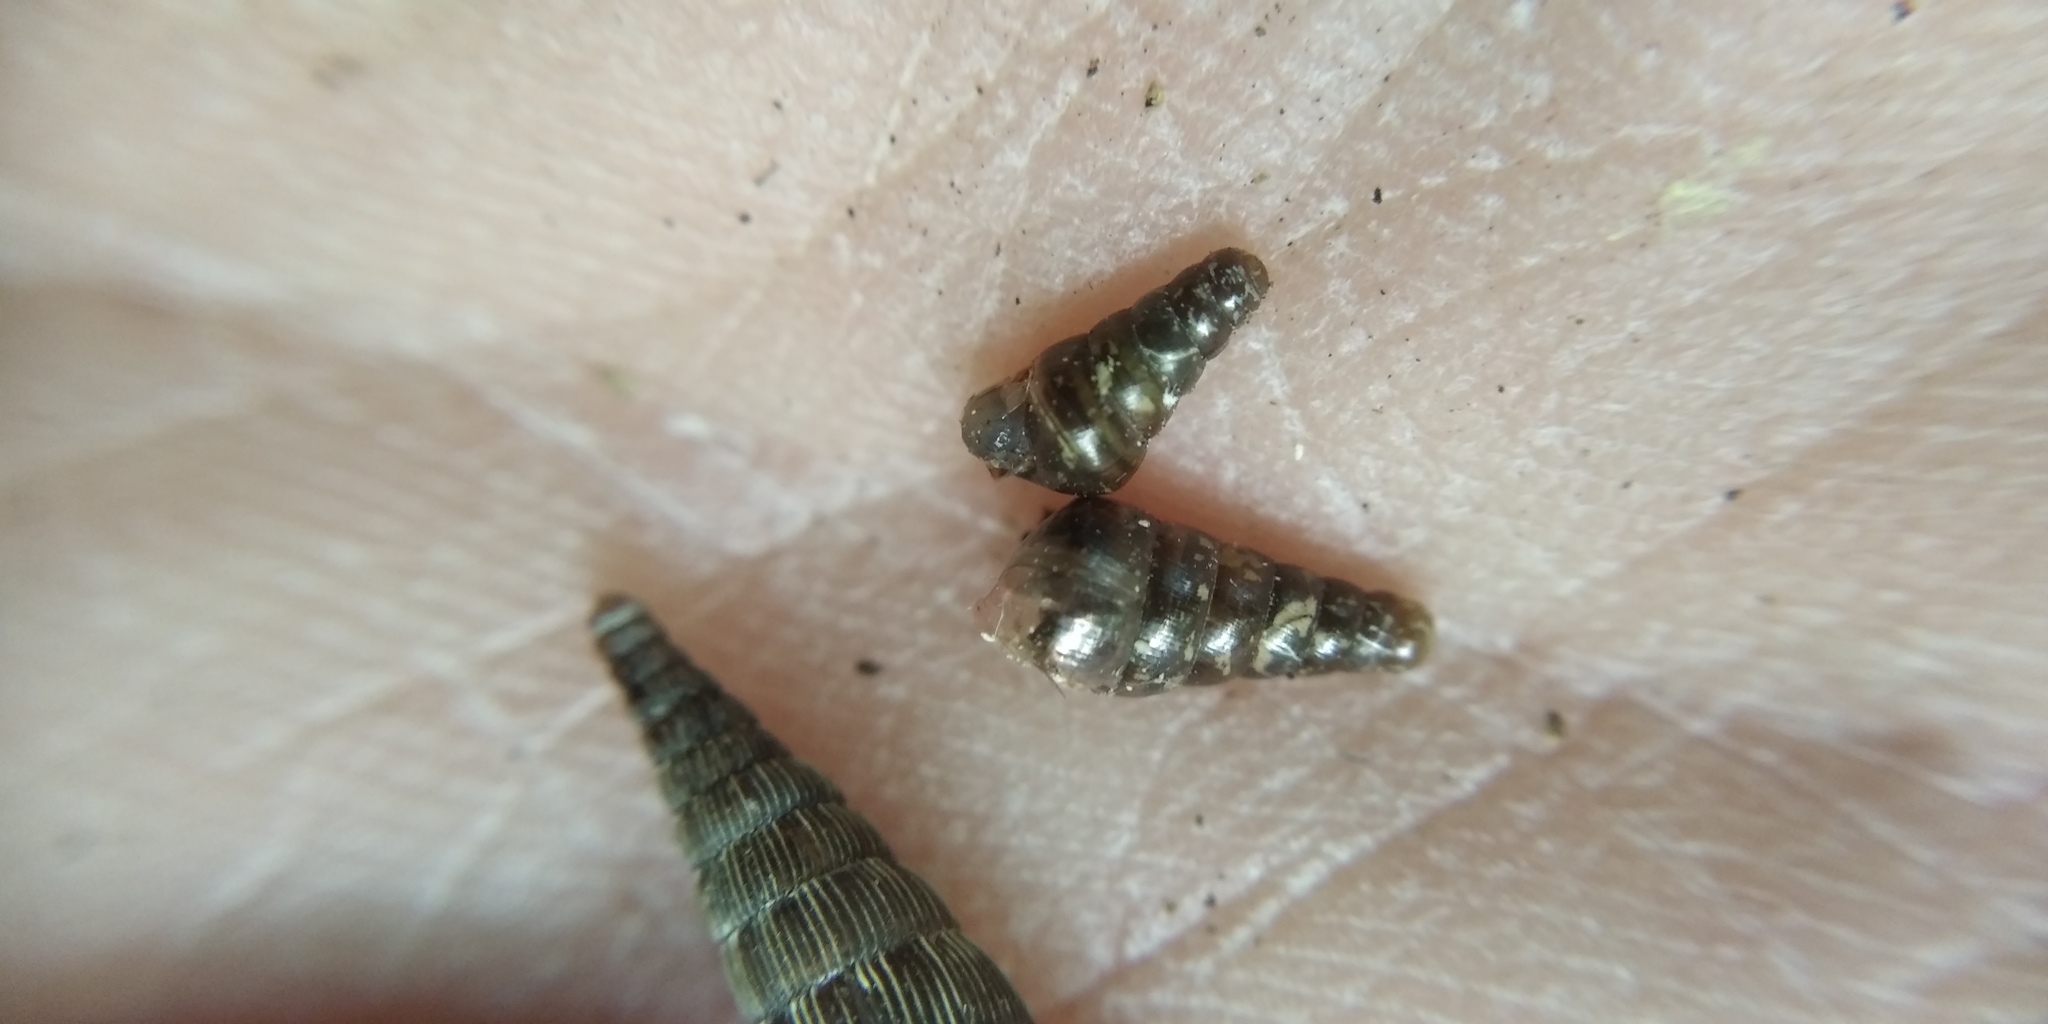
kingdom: Animalia
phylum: Mollusca
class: Gastropoda
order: Stylommatophora
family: Clausiliidae
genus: Cochlodina
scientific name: Cochlodina laminata
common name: Plaited door snail
